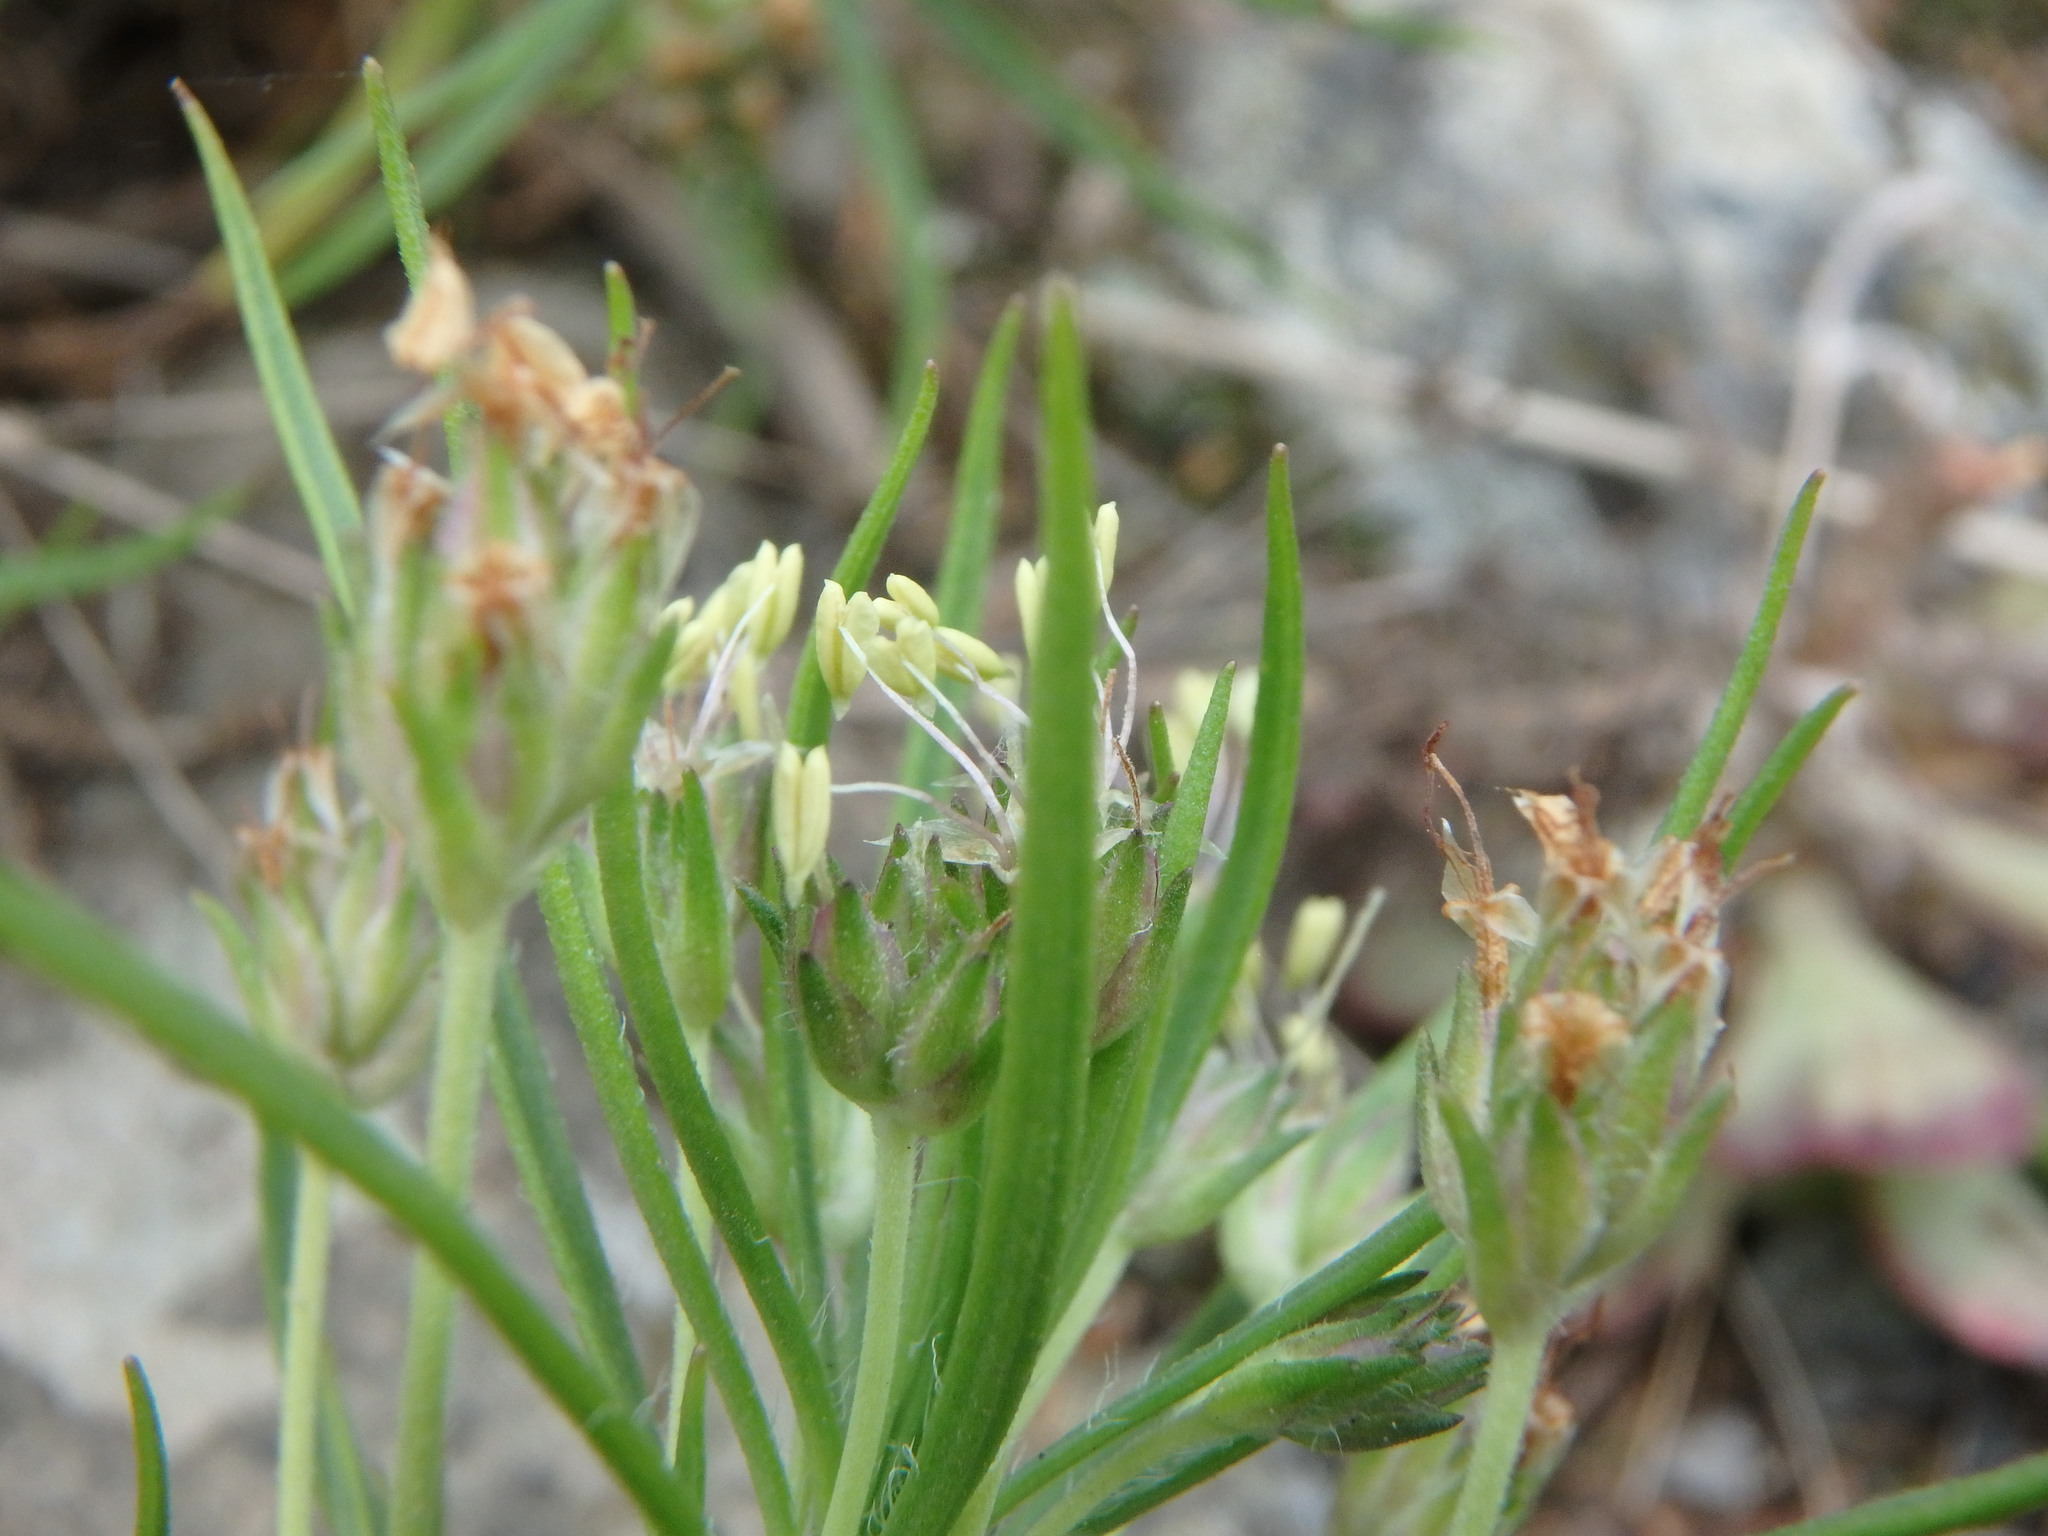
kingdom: Plantae
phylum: Tracheophyta
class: Magnoliopsida
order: Lamiales
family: Plantaginaceae
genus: Plantago
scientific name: Plantago arborescens
